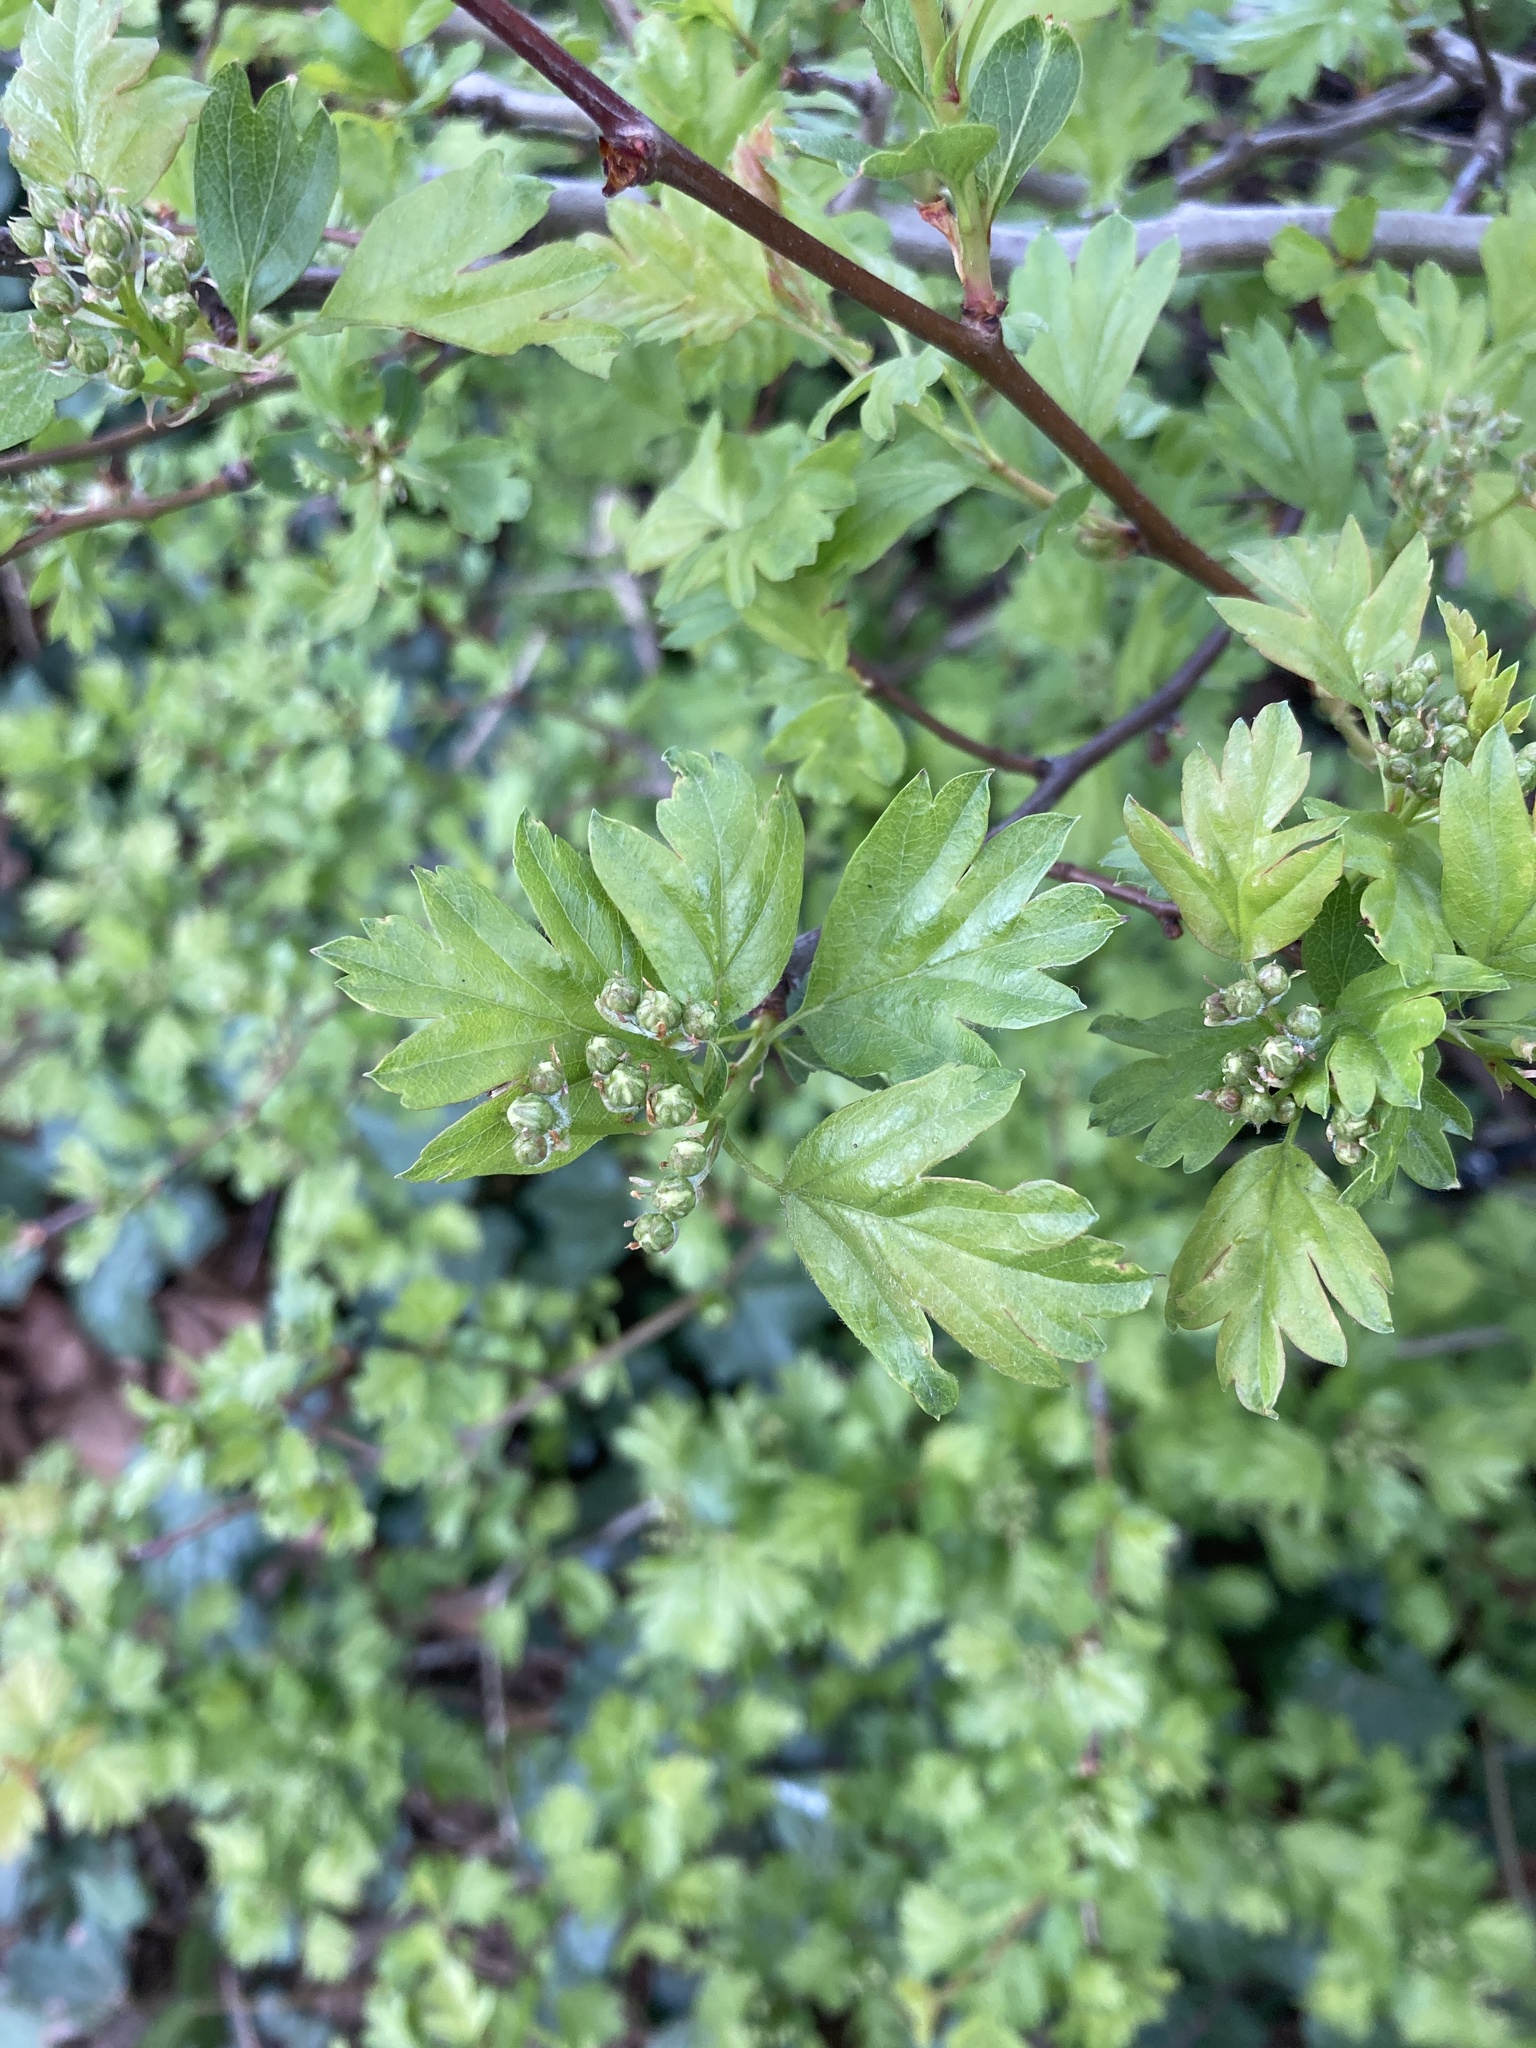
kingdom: Plantae
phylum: Tracheophyta
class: Magnoliopsida
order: Rosales
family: Rosaceae
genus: Crataegus
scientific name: Crataegus monogyna
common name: Hawthorn
